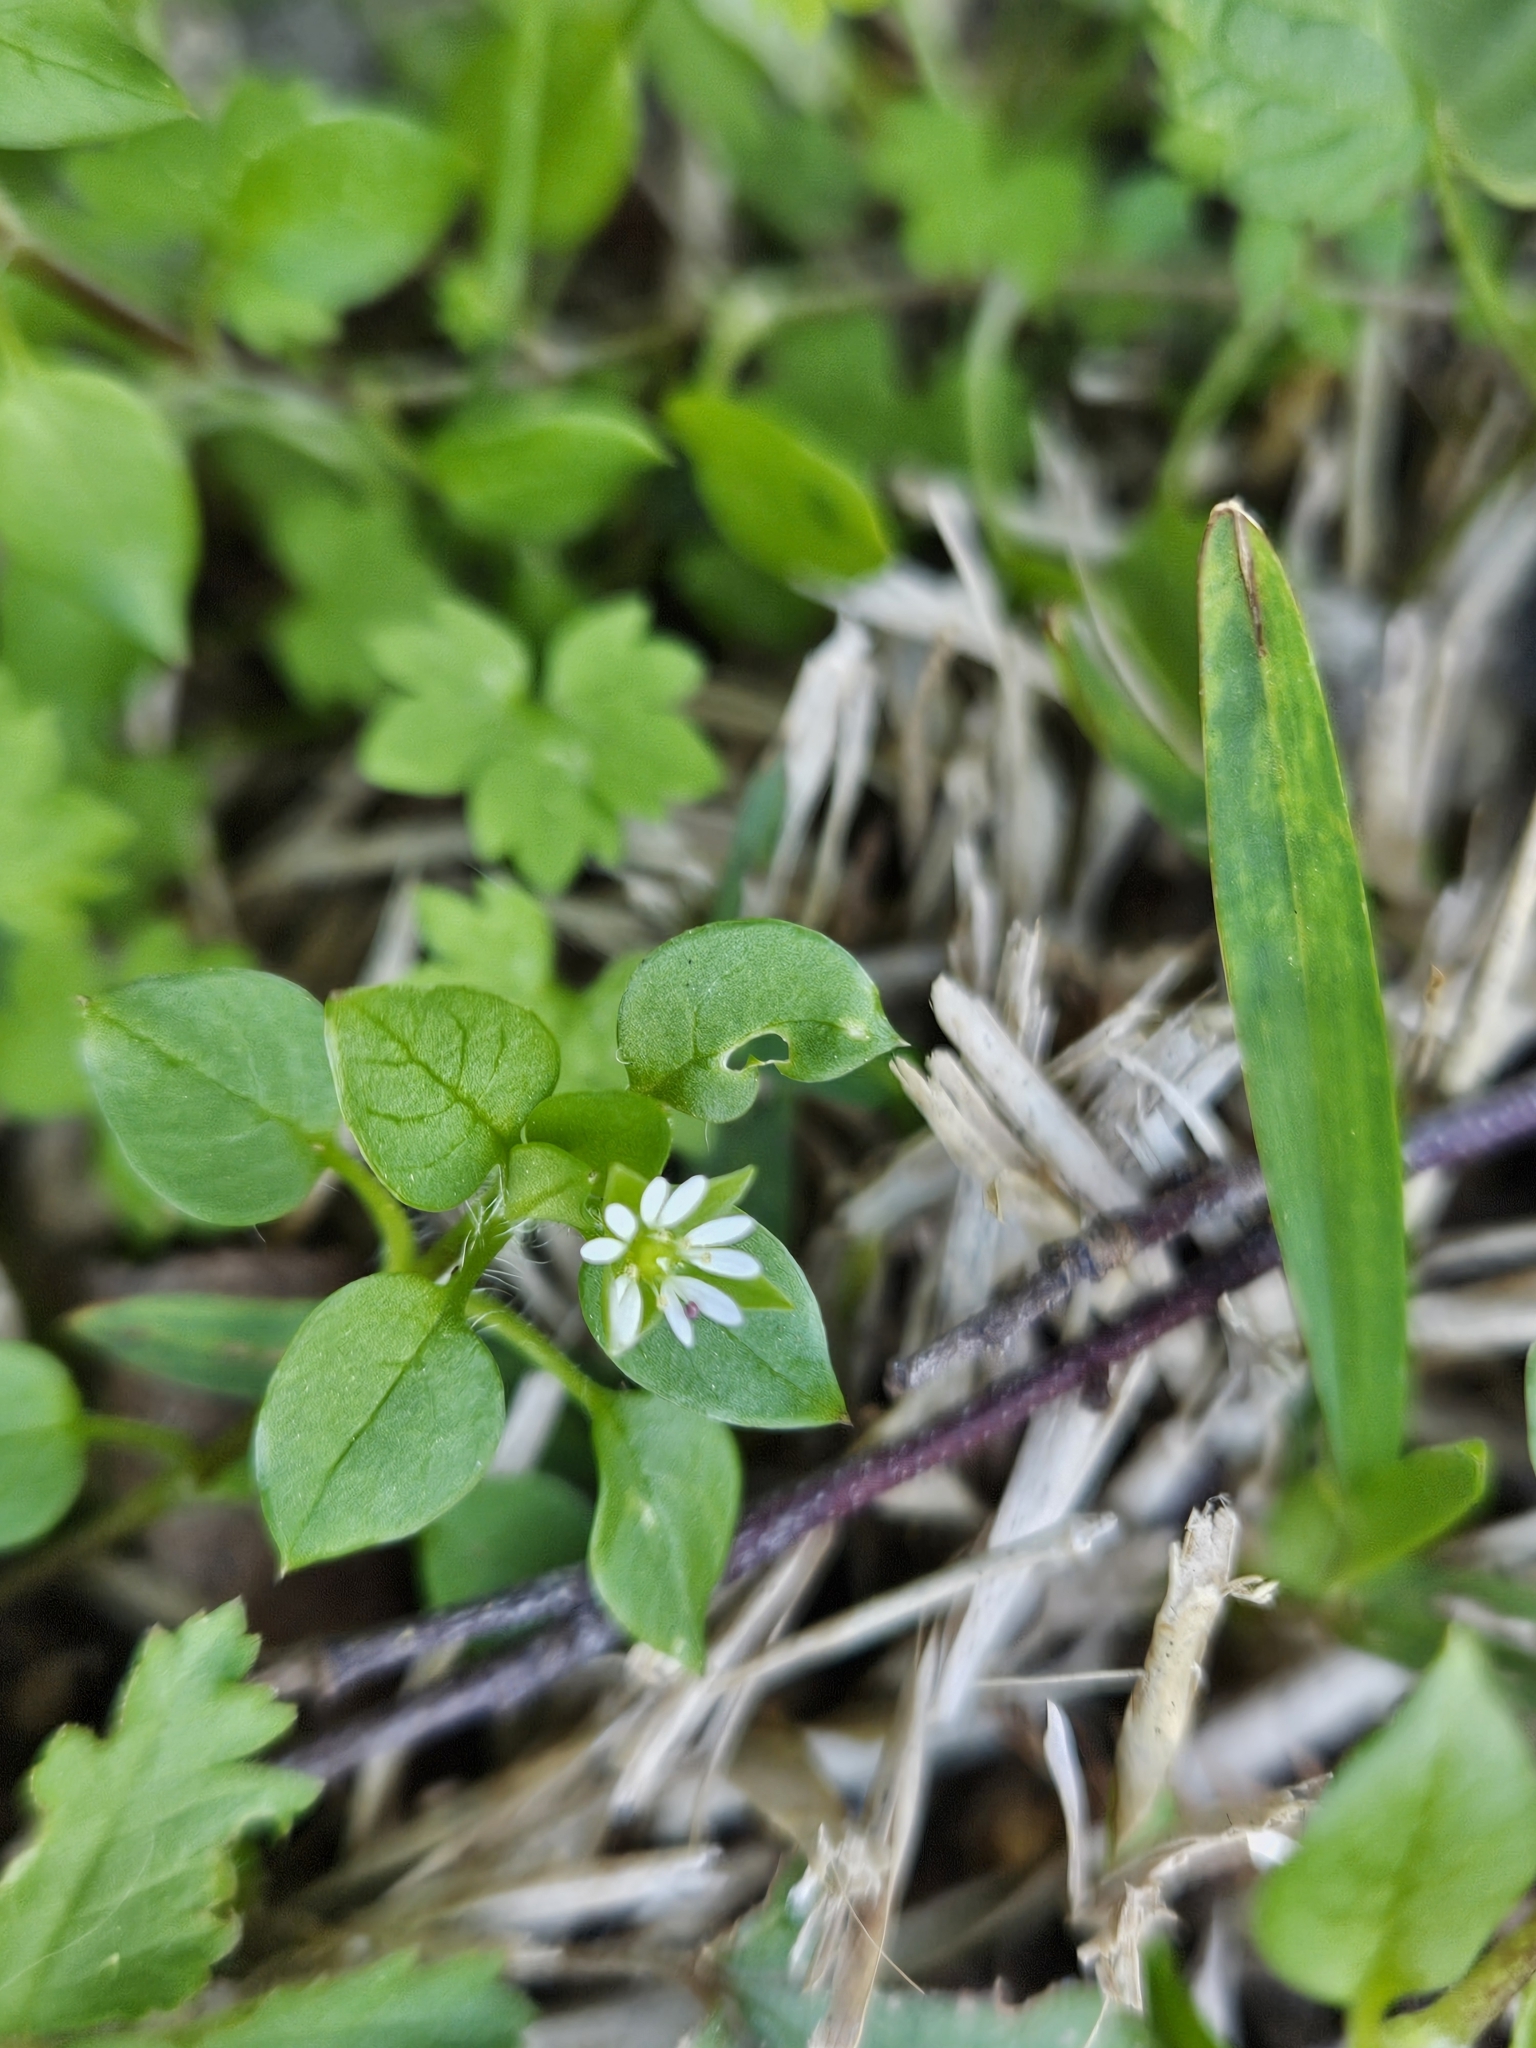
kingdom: Plantae
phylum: Tracheophyta
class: Magnoliopsida
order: Caryophyllales
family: Caryophyllaceae
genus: Stellaria
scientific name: Stellaria media
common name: Common chickweed
